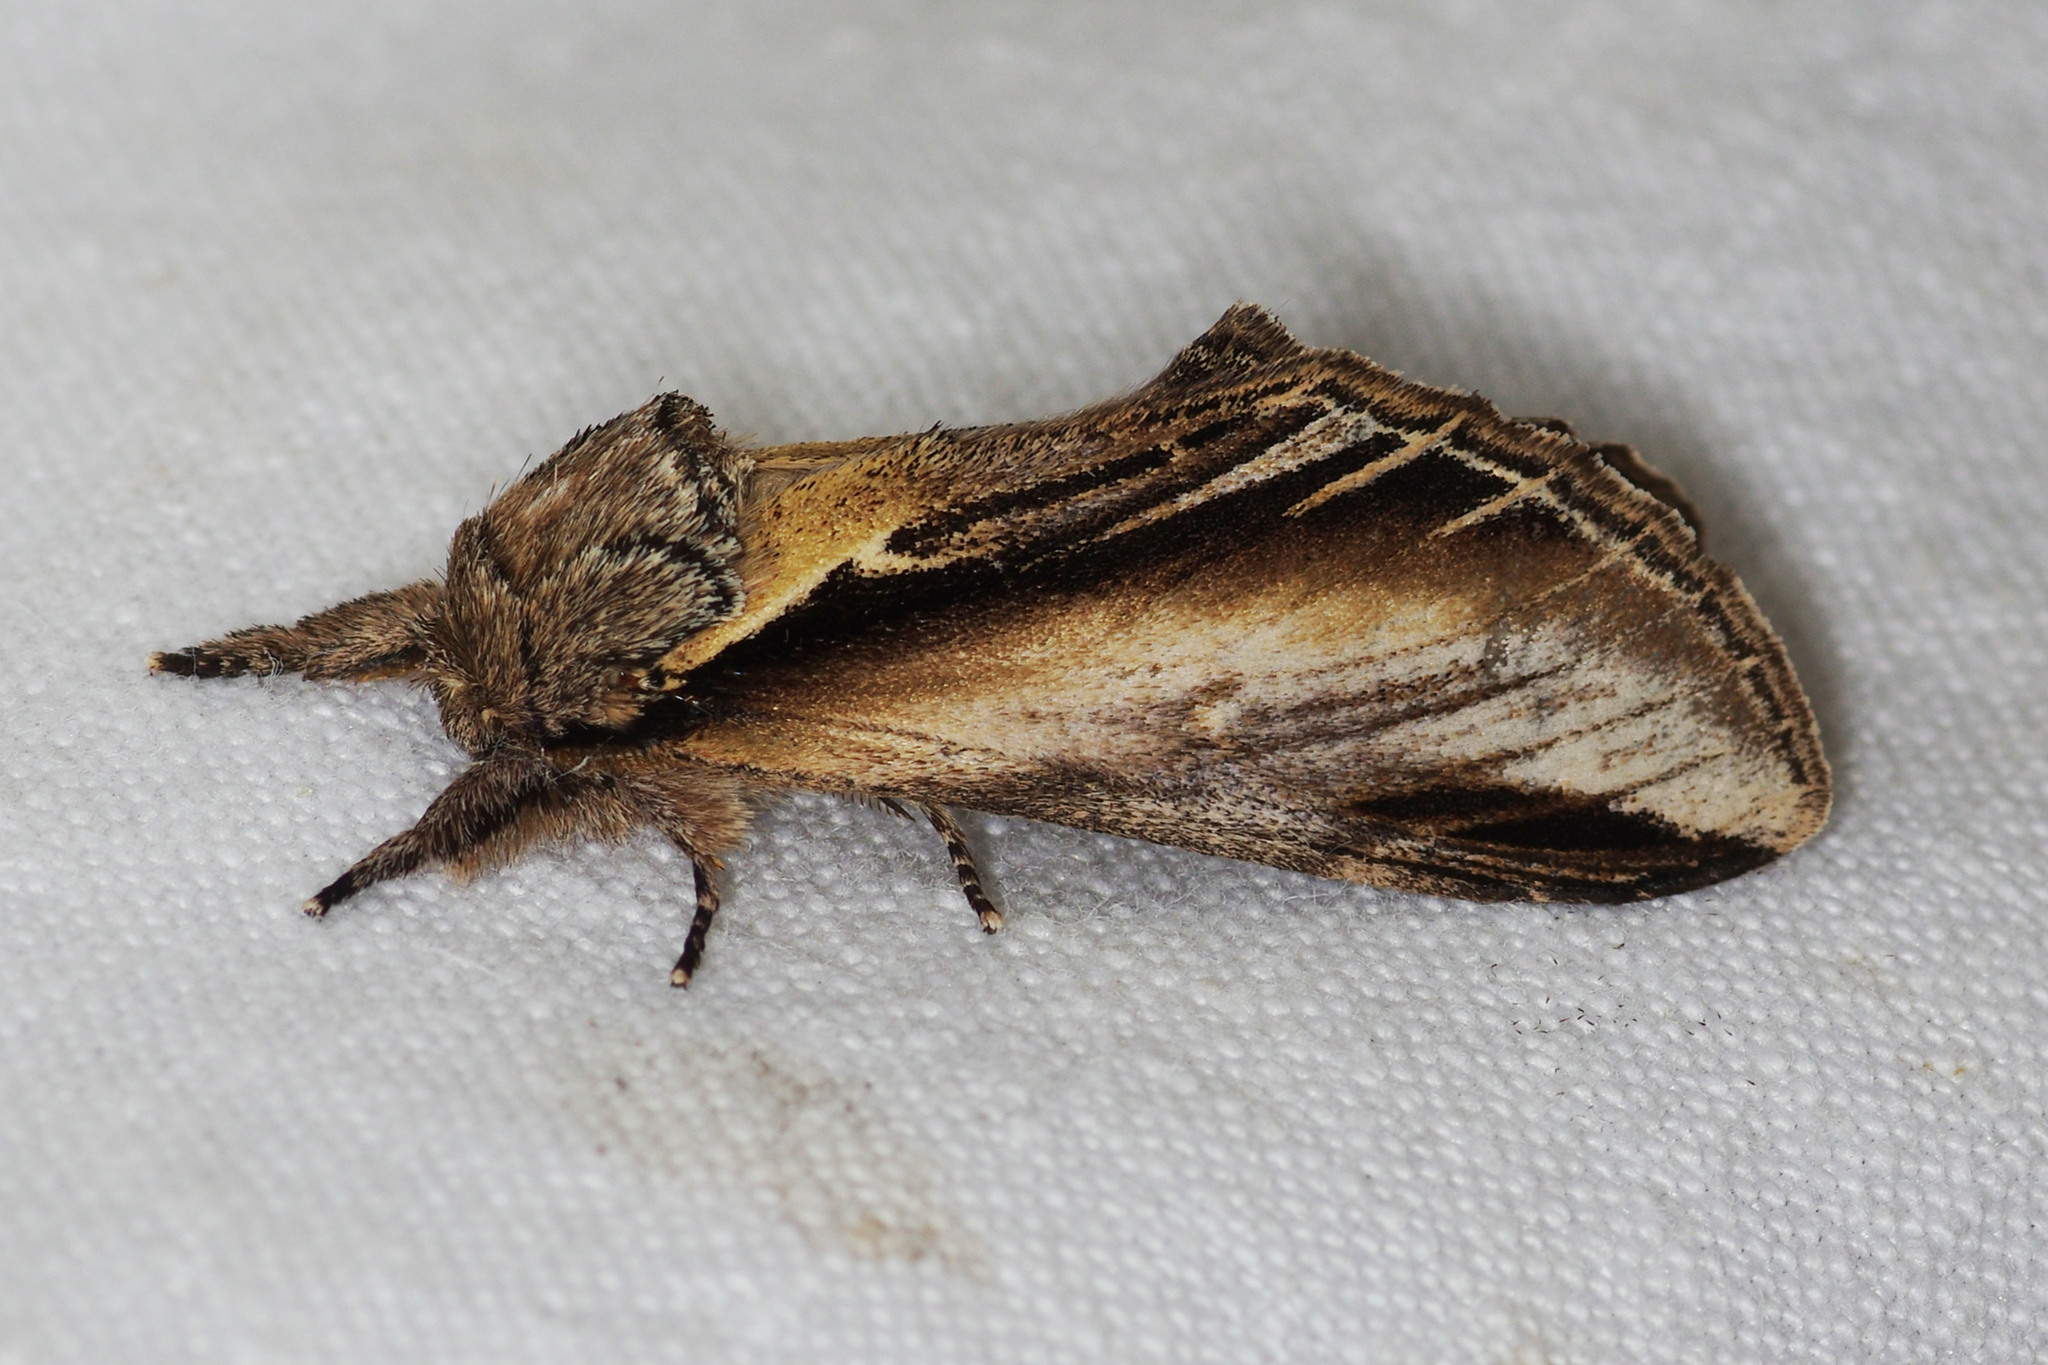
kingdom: Animalia
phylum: Arthropoda
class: Insecta
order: Lepidoptera
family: Notodontidae
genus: Pheosia
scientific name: Pheosia tremula
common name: Swallow prominent
